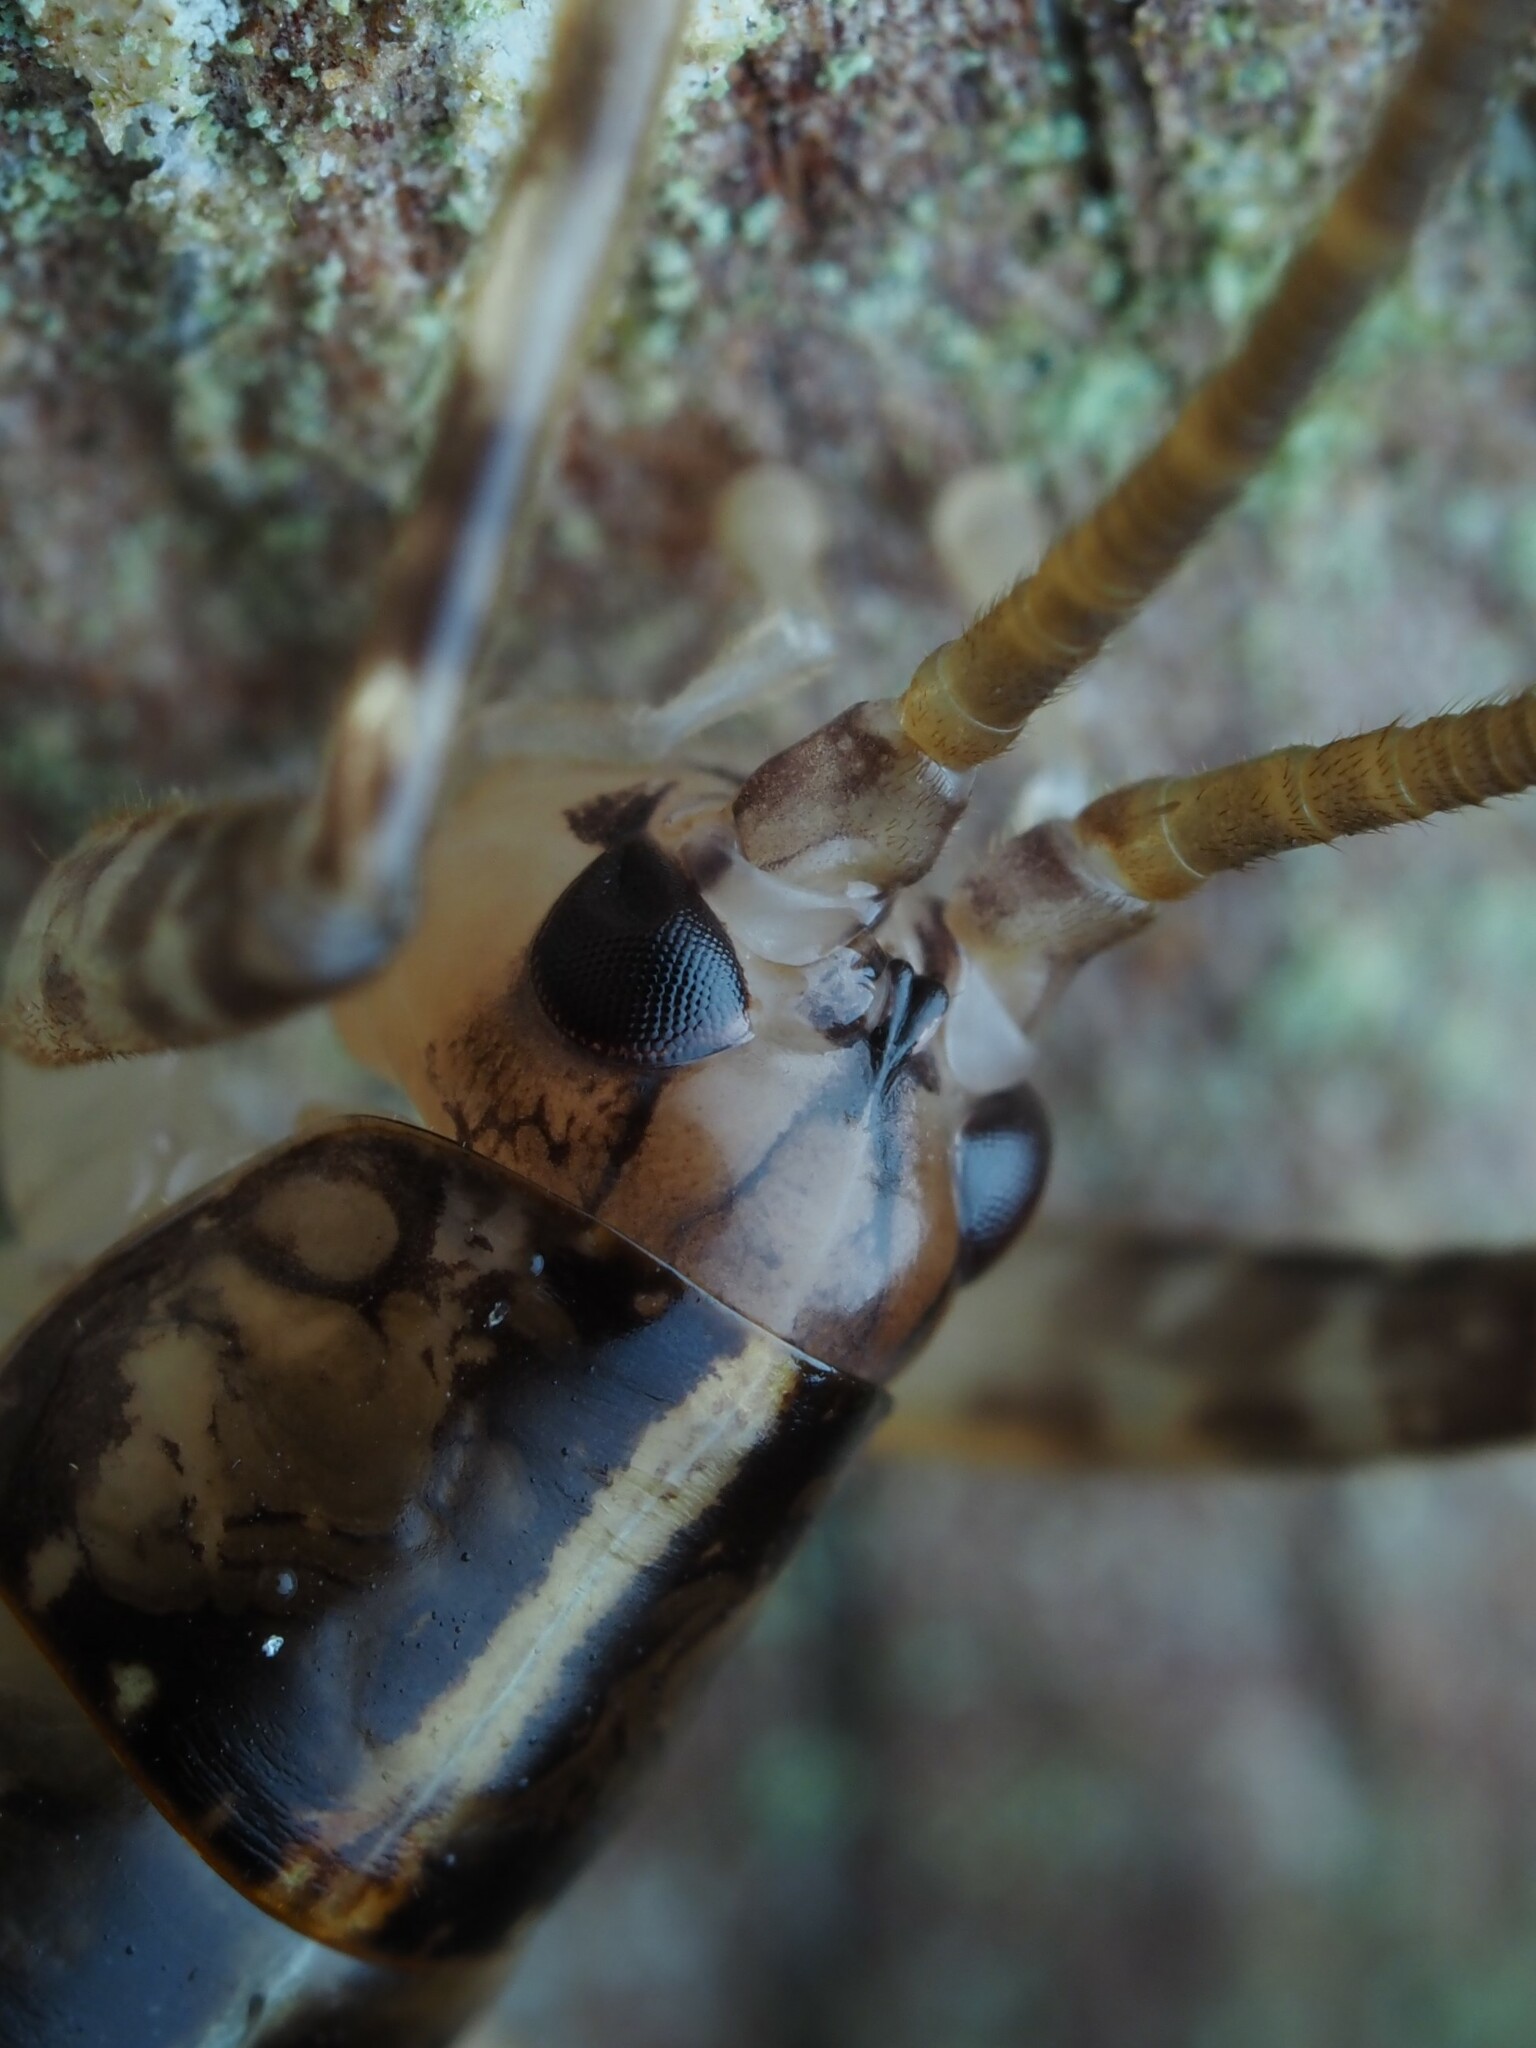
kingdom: Animalia
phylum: Arthropoda
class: Insecta
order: Orthoptera
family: Rhaphidophoridae
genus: Talitropsis
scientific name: Talitropsis sedilloti
